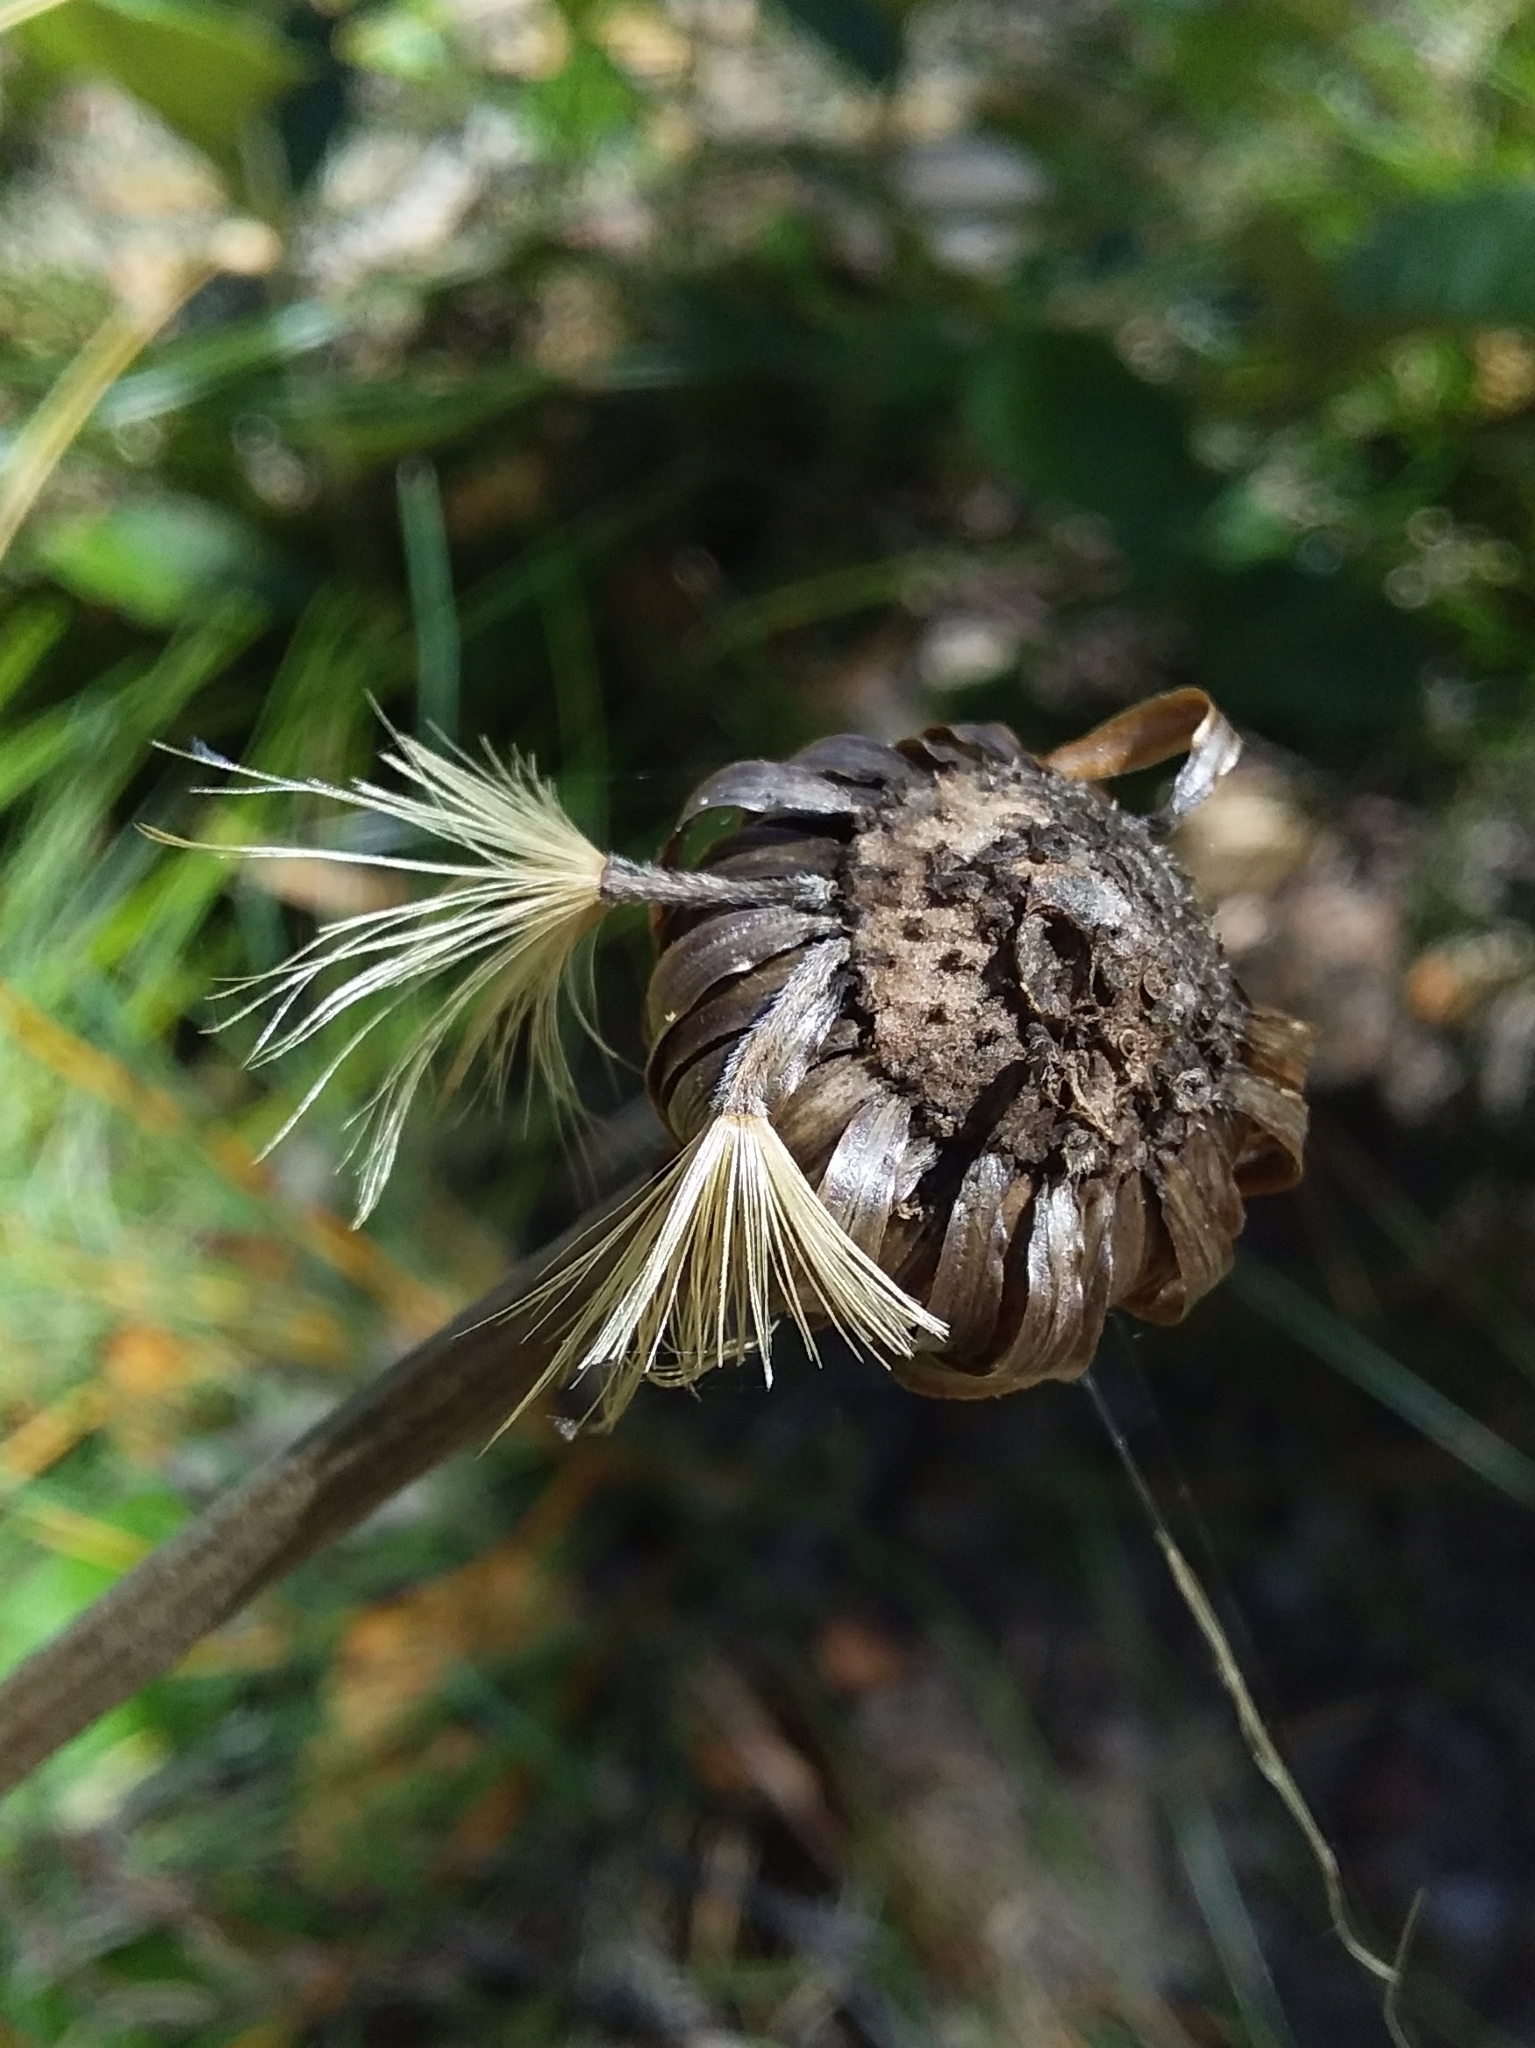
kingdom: Plantae
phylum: Tracheophyta
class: Magnoliopsida
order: Asterales
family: Asteraceae
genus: Olearia
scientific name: Olearia grandiflora
